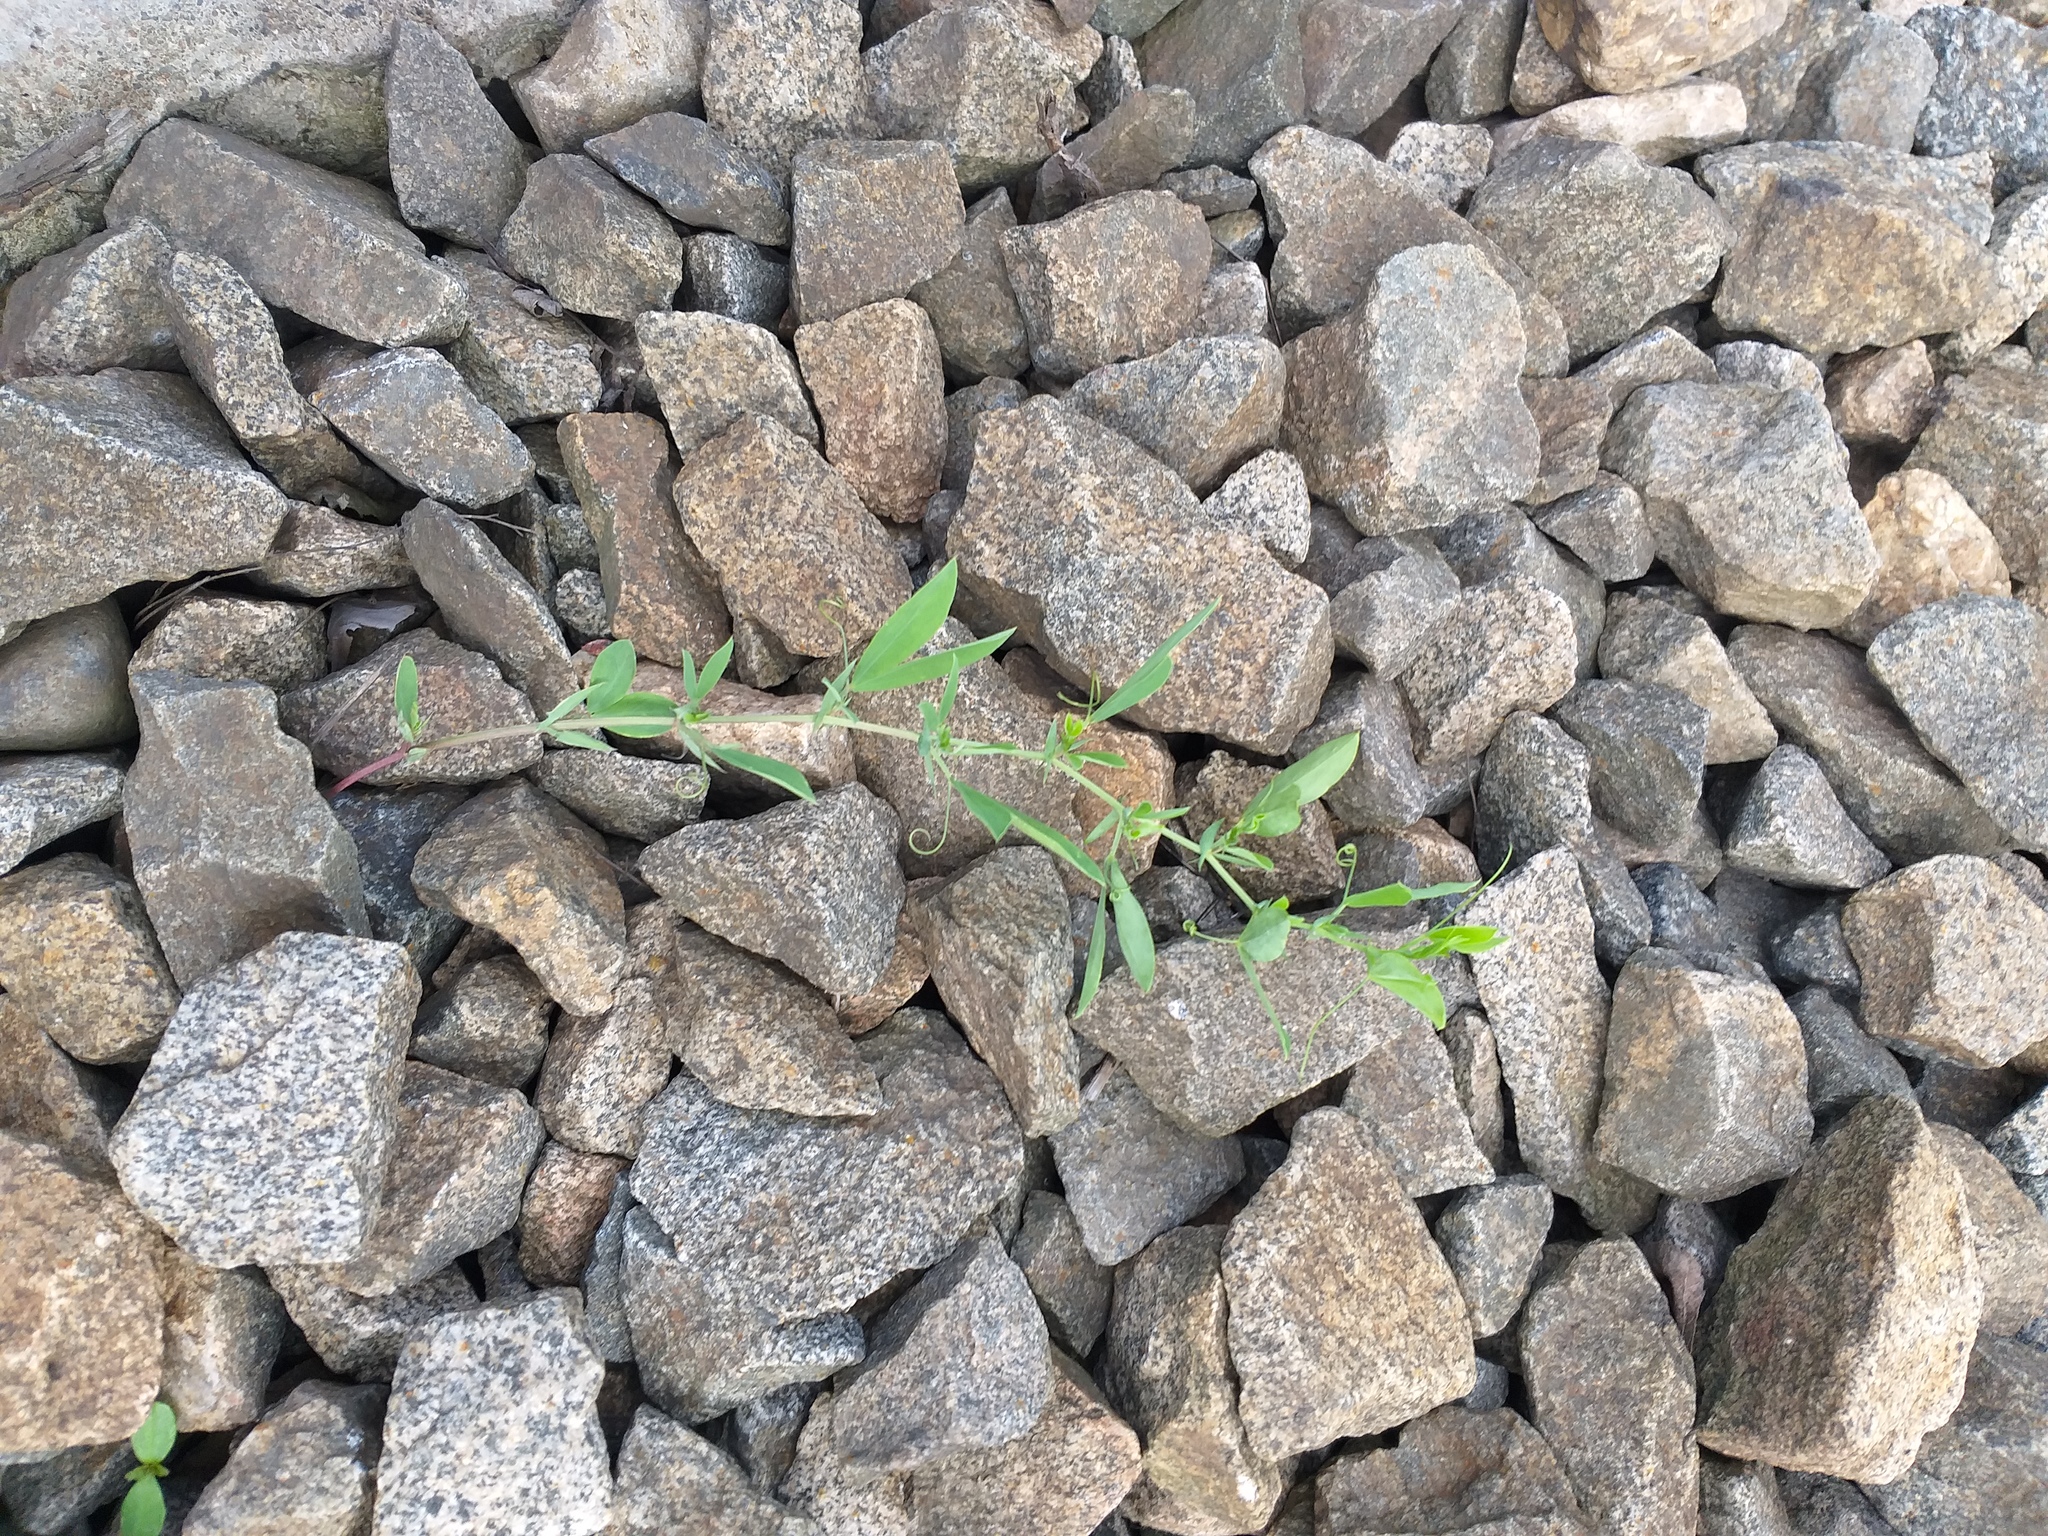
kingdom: Plantae
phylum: Tracheophyta
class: Magnoliopsida
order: Fabales
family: Fabaceae
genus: Lathyrus
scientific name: Lathyrus tuberosus
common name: Tuberous pea
